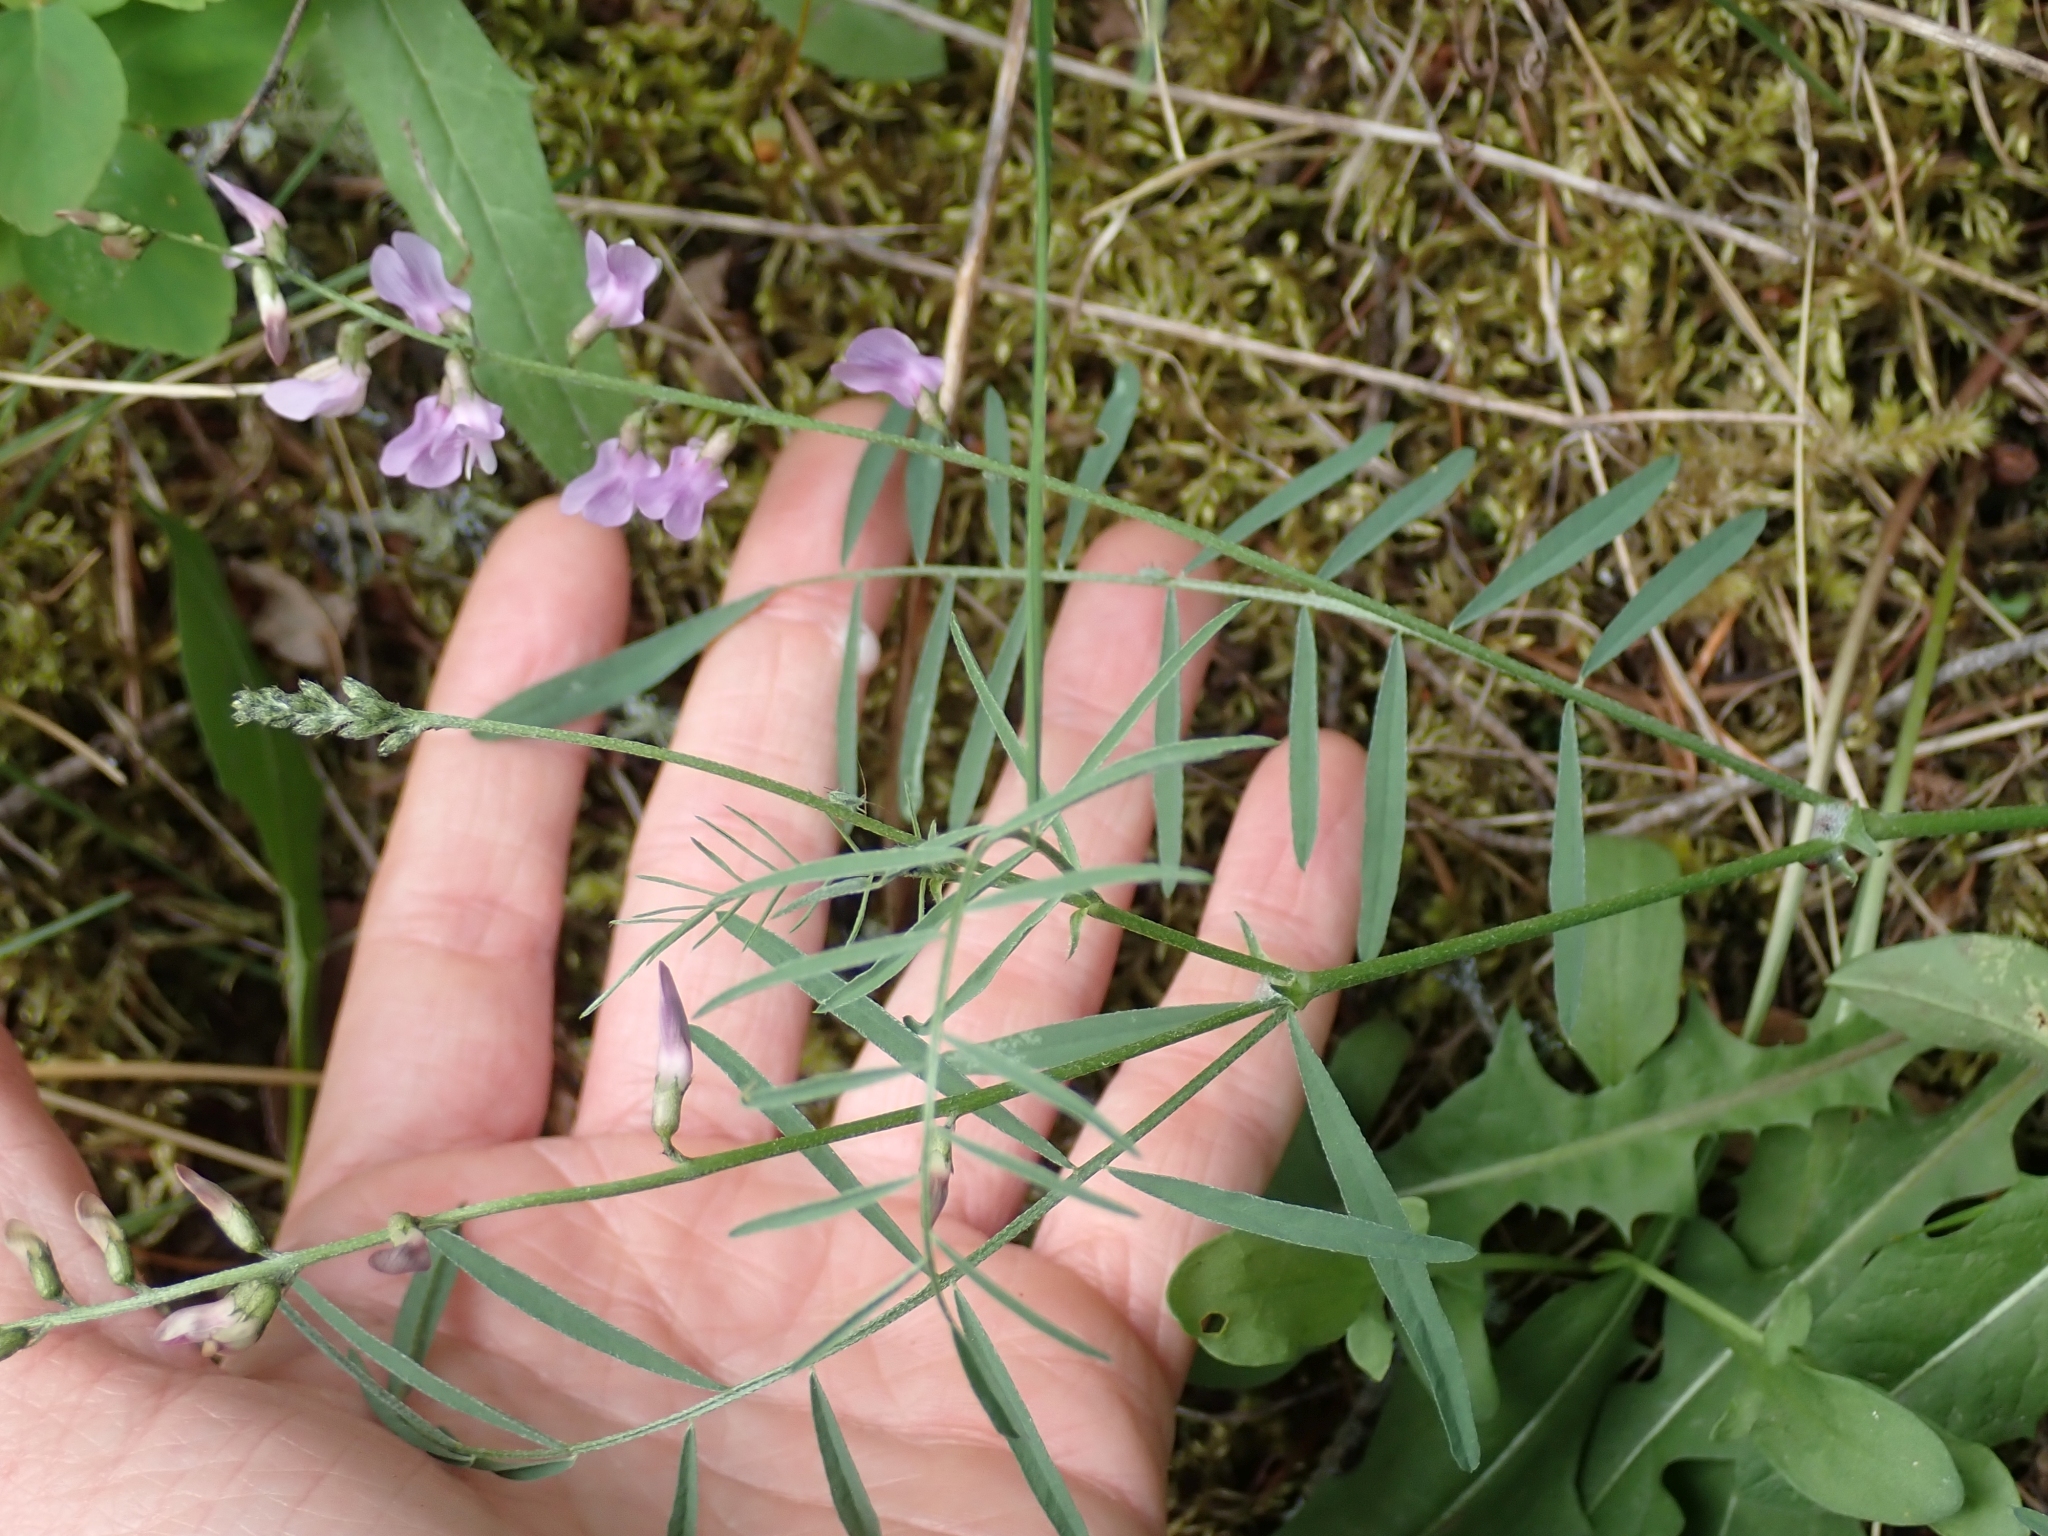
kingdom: Plantae
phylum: Tracheophyta
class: Magnoliopsida
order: Fabales
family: Fabaceae
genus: Astragalus
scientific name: Astragalus miser
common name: Timber milkvetch
